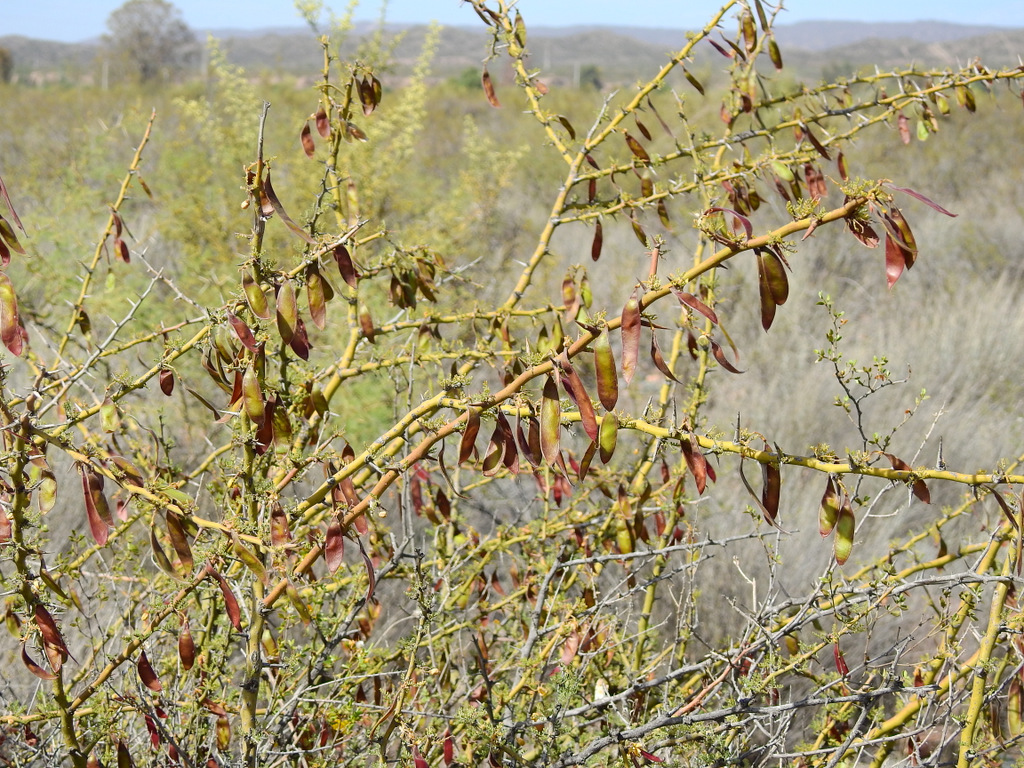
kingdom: Plantae
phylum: Tracheophyta
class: Magnoliopsida
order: Fabales
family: Fabaceae
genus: Parkinsonia
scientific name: Parkinsonia praecox
